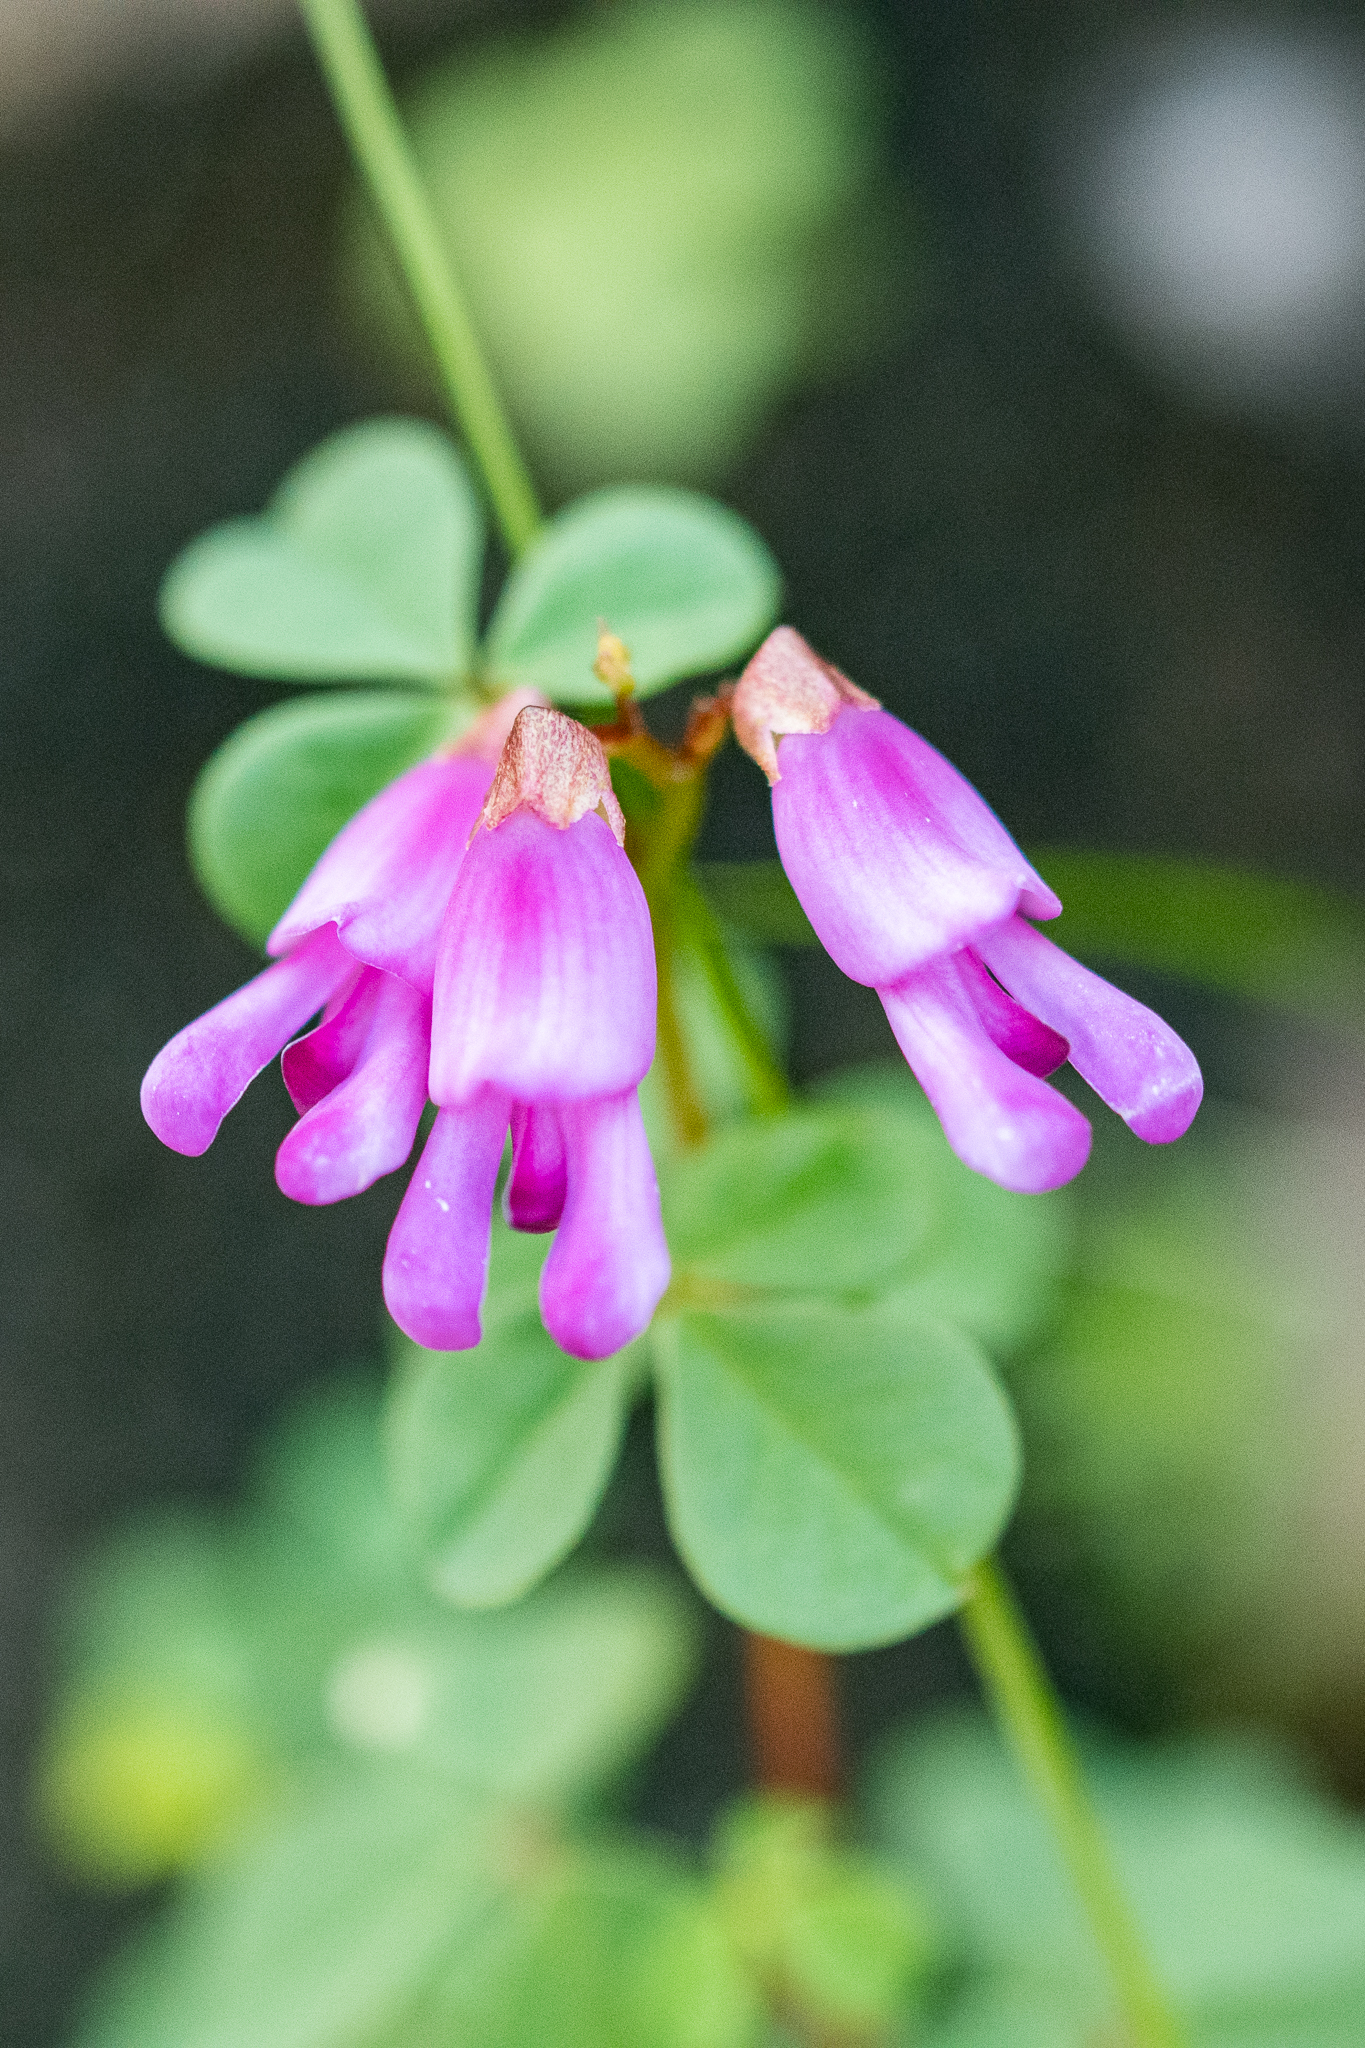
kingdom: Plantae
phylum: Tracheophyta
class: Magnoliopsida
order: Fabales
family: Fabaceae
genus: Hypocalyptus
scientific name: Hypocalyptus oxalidifolius
